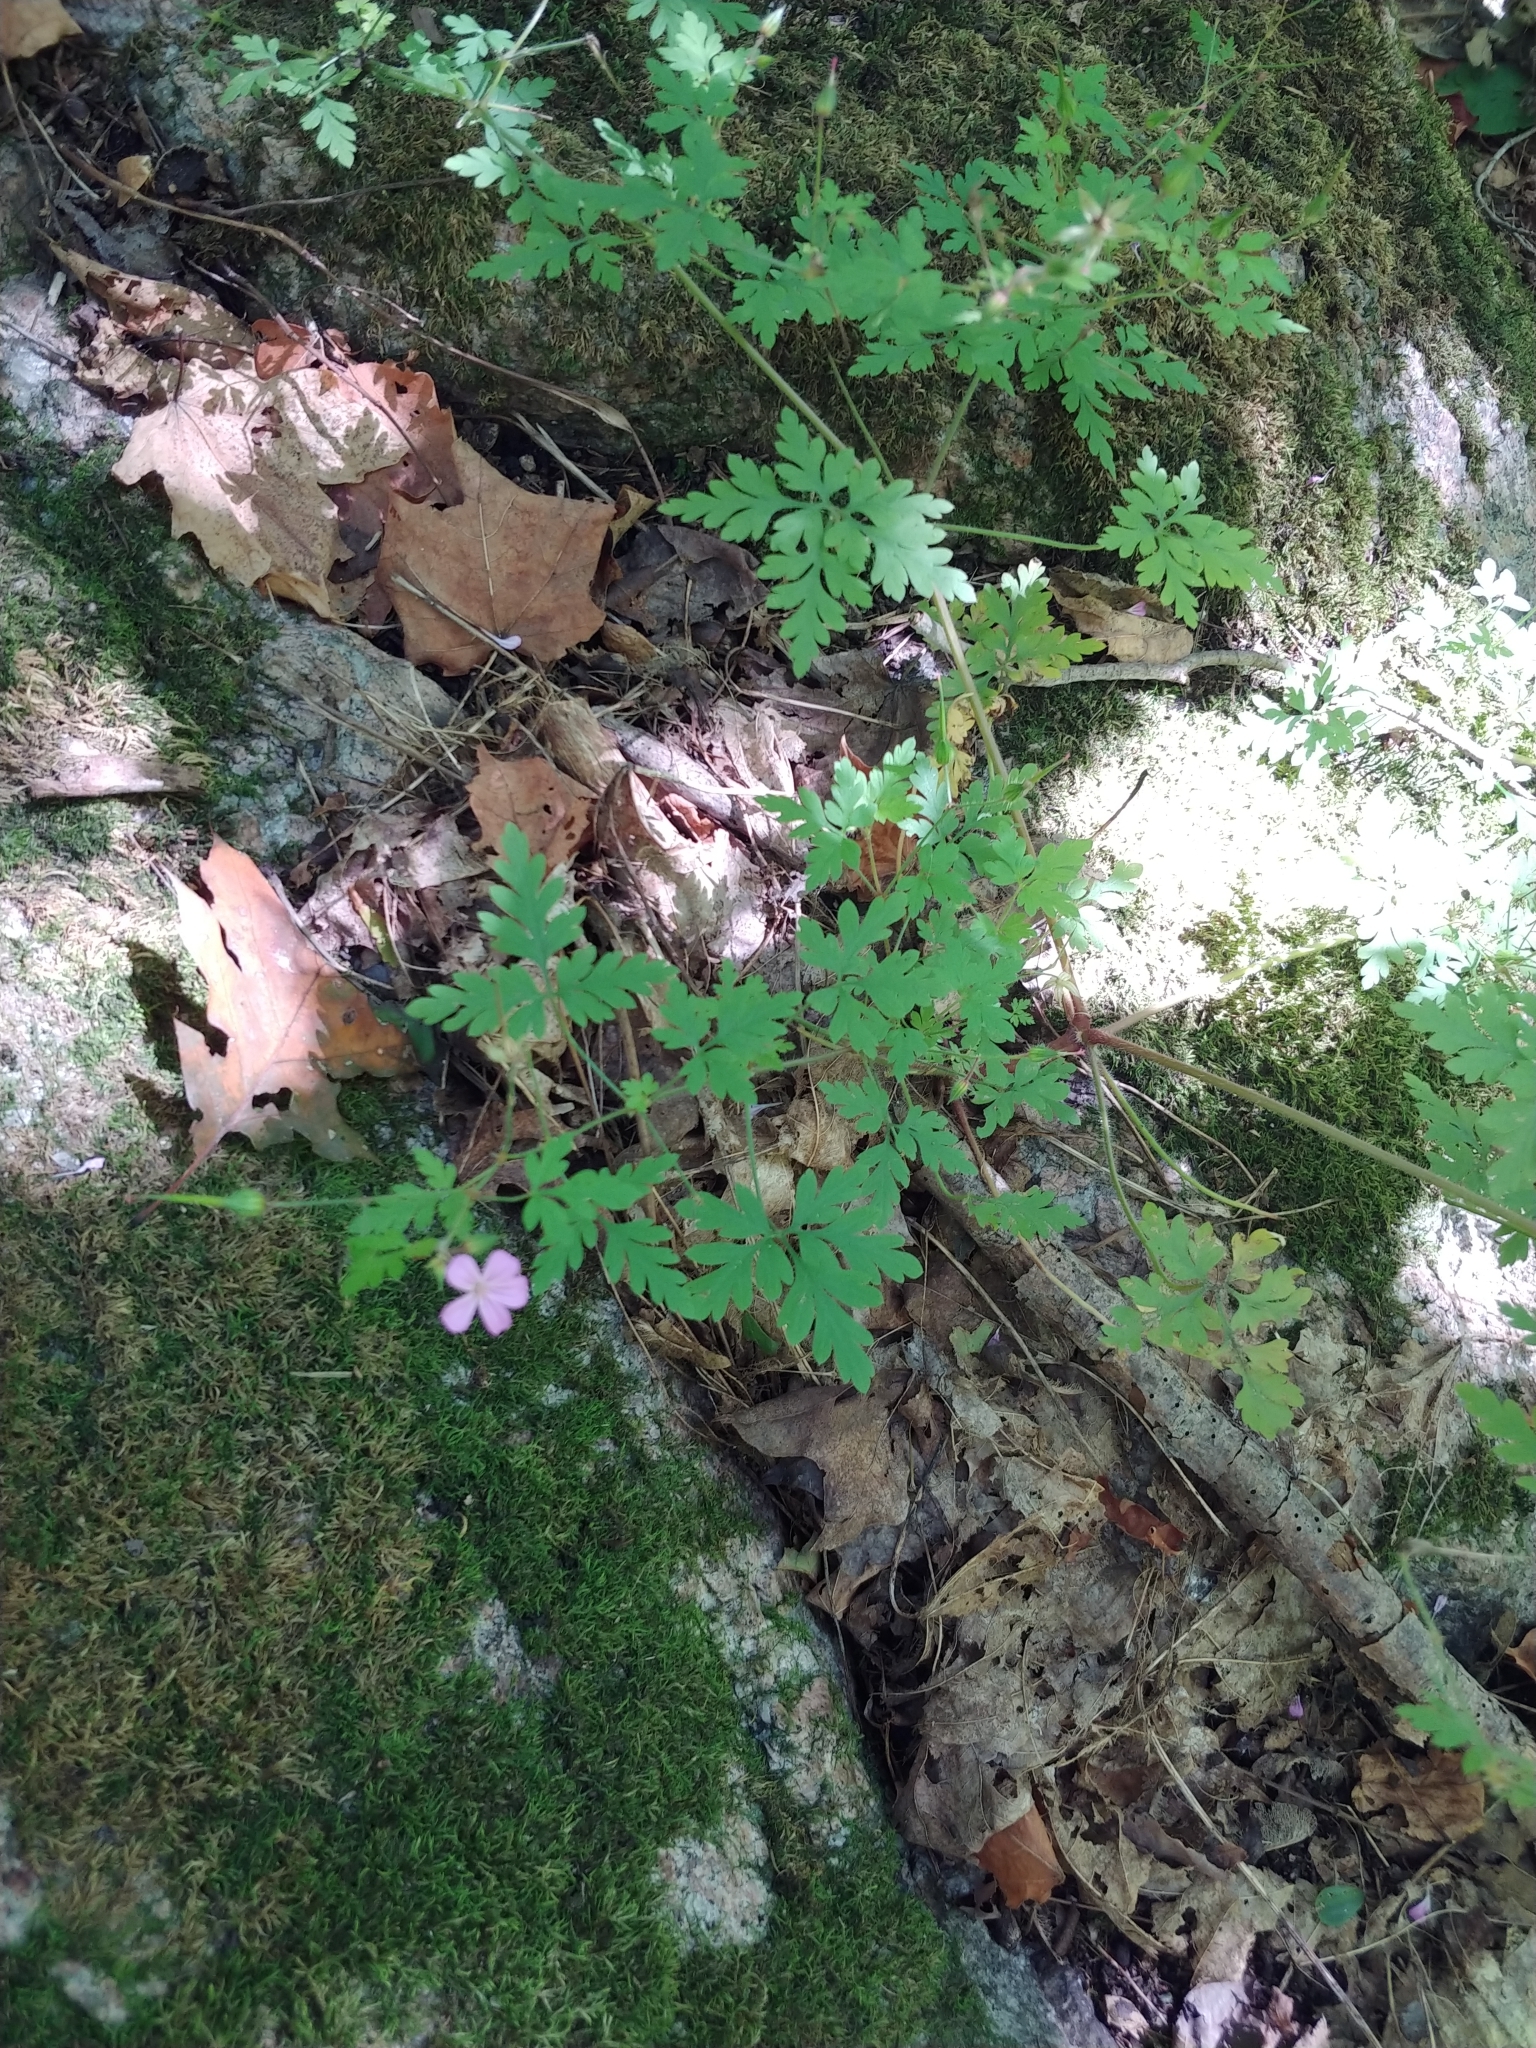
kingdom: Plantae
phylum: Tracheophyta
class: Magnoliopsida
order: Geraniales
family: Geraniaceae
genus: Geranium
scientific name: Geranium robertianum
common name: Herb-robert
